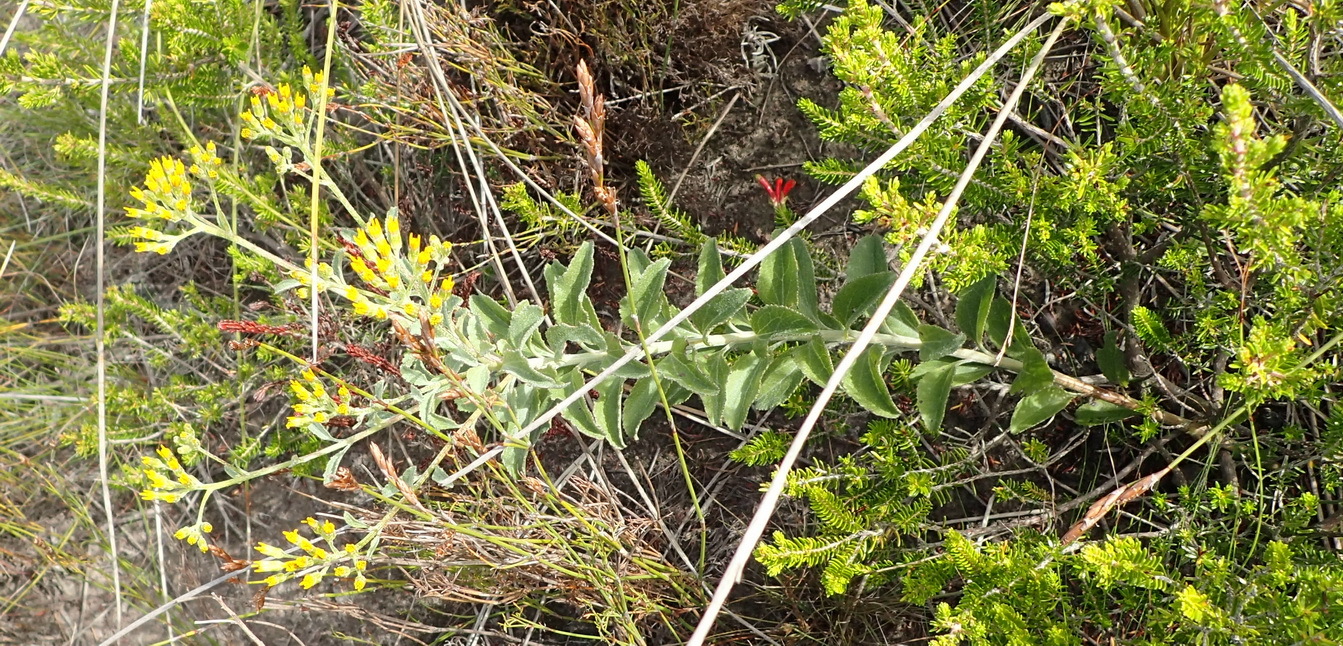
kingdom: Plantae
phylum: Tracheophyta
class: Magnoliopsida
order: Asterales
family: Asteraceae
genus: Senecio
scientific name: Senecio crenatus
